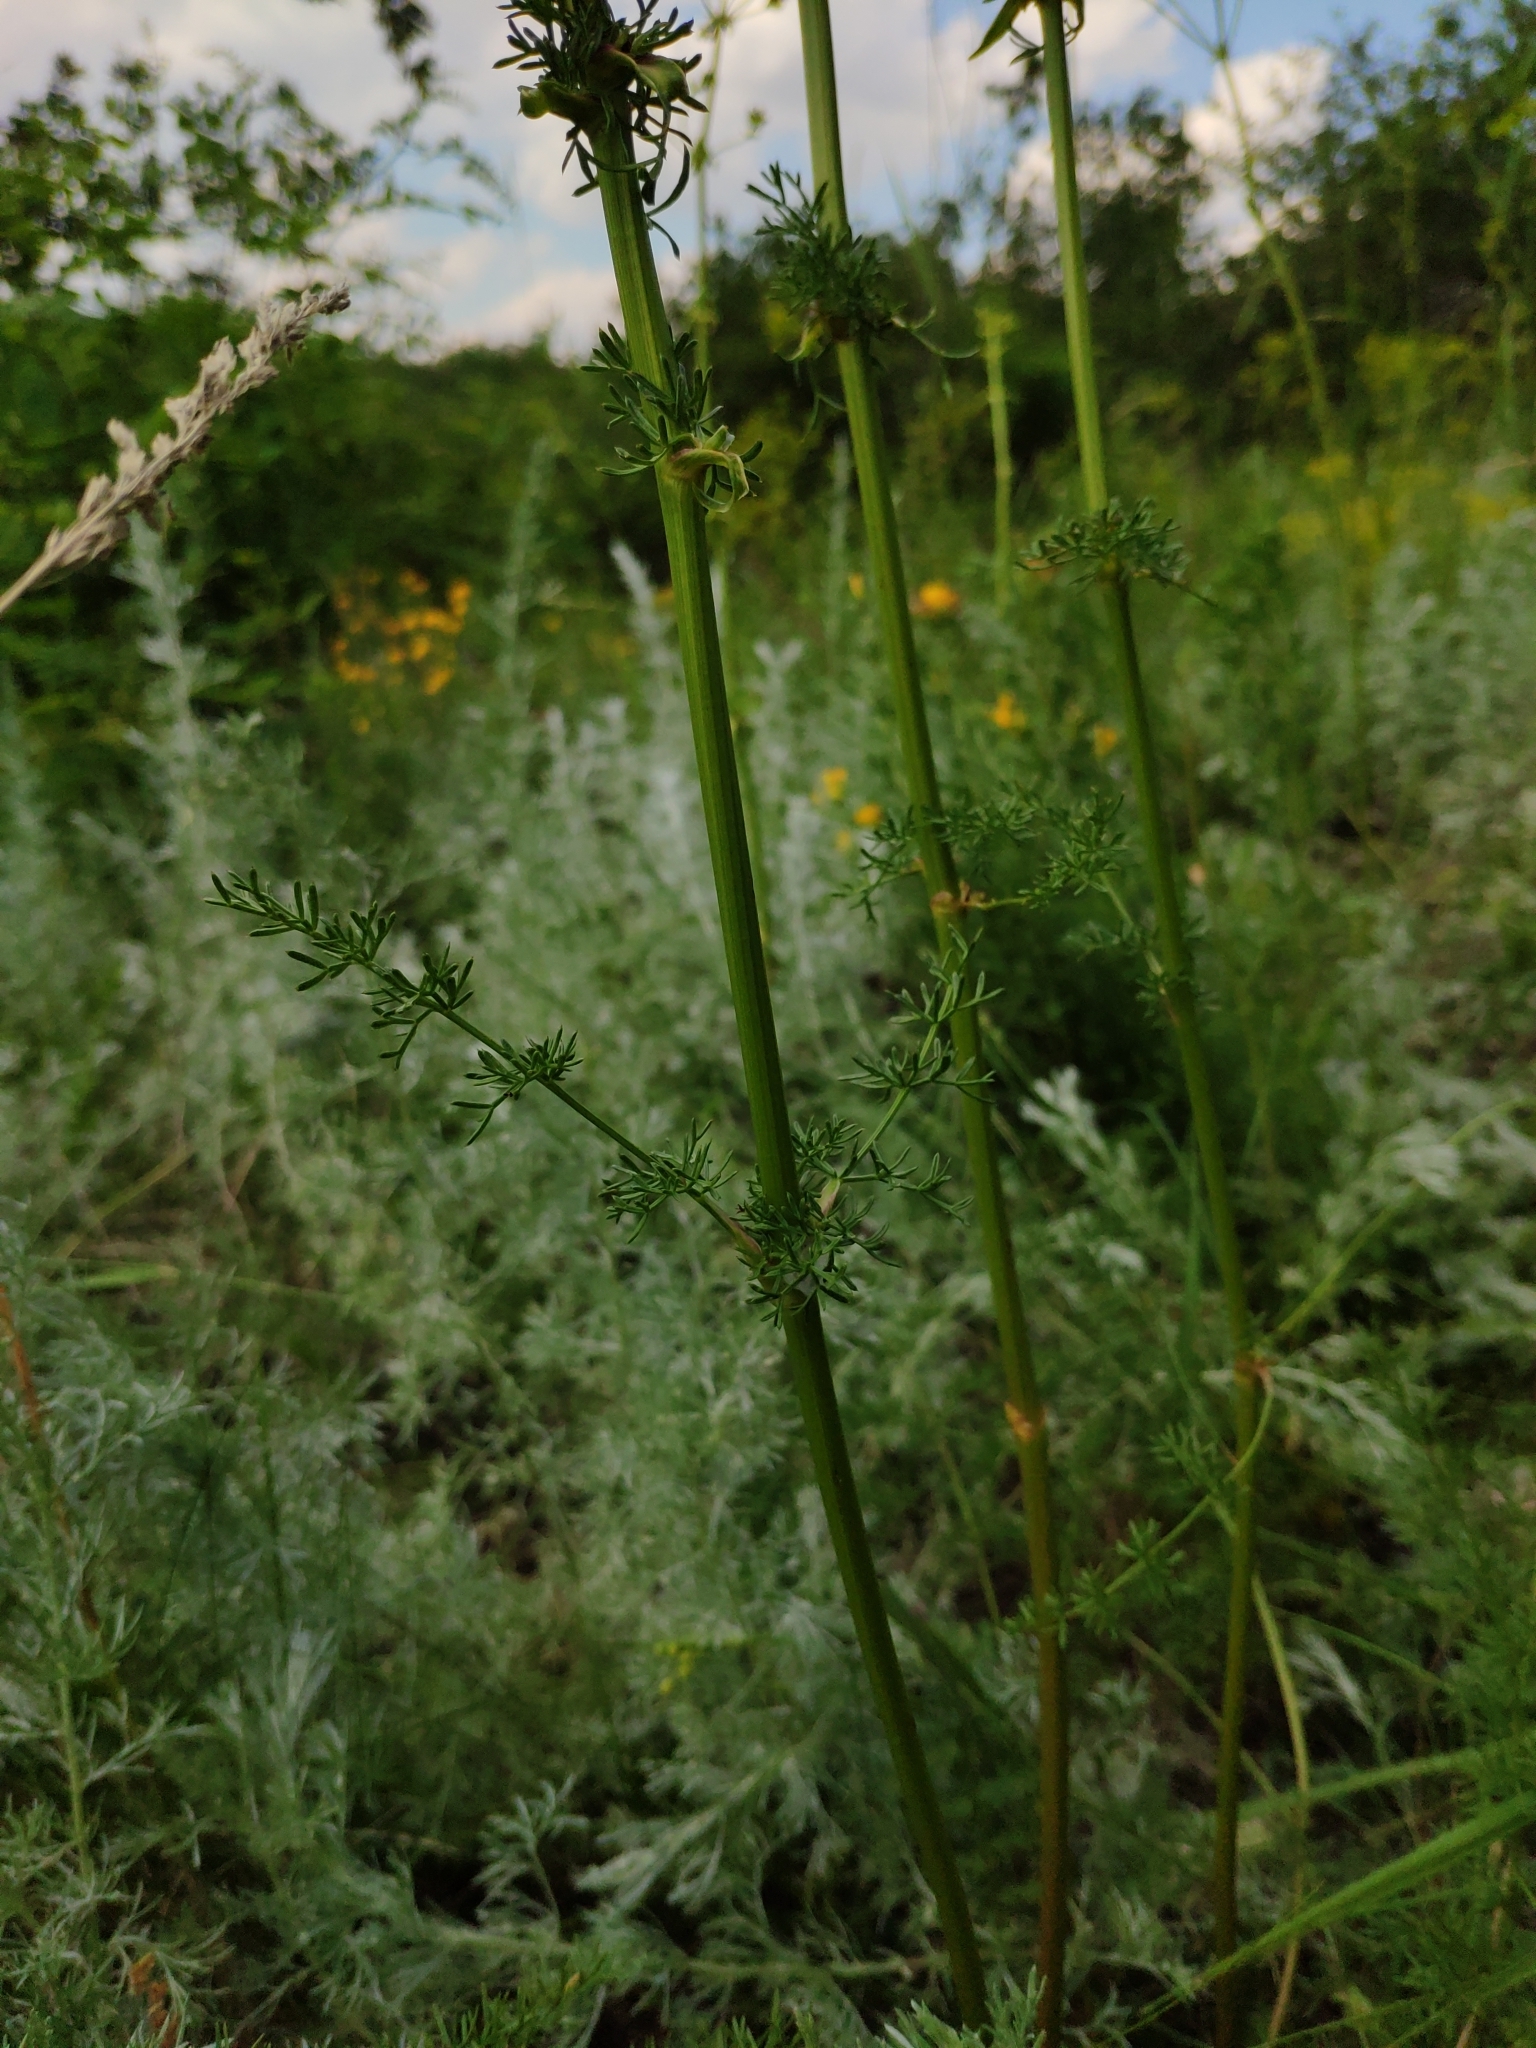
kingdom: Plantae
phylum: Tracheophyta
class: Magnoliopsida
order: Apiales
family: Apiaceae
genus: Ferulago
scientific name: Ferulago galbanifera
